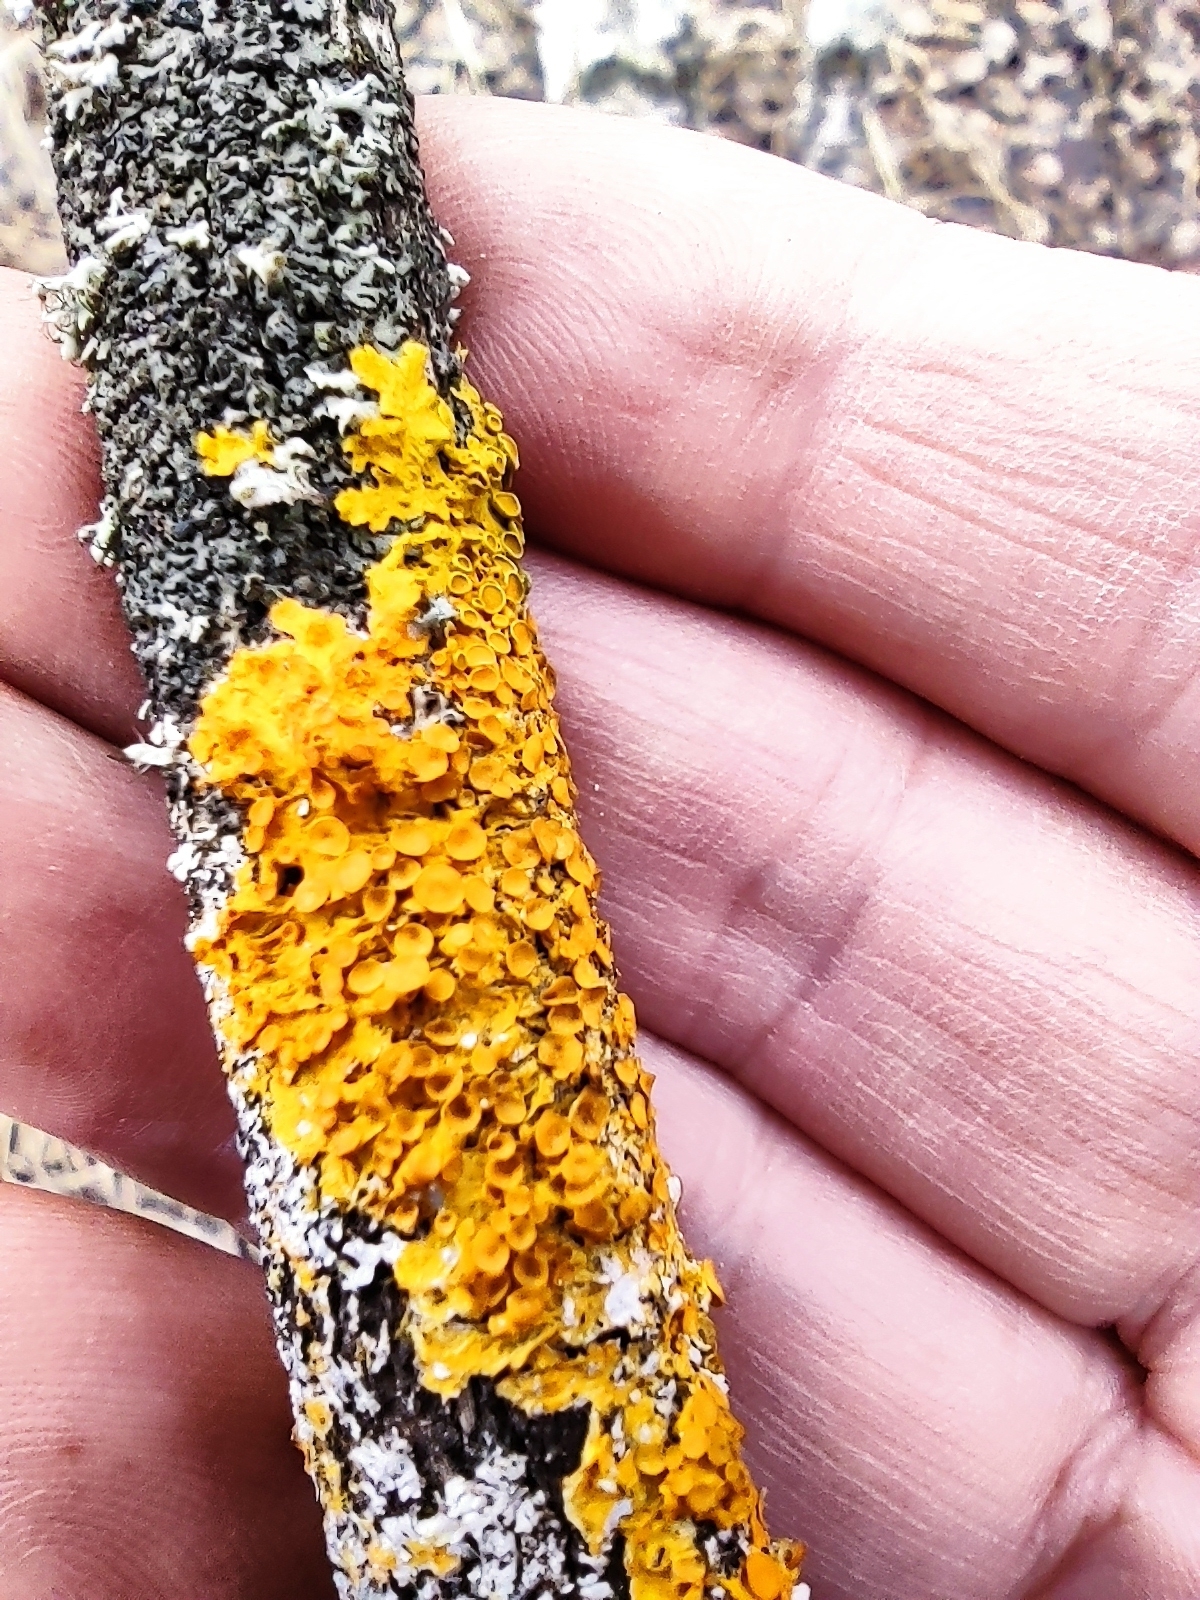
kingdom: Fungi
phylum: Ascomycota
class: Lecanoromycetes
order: Teloschistales
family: Teloschistaceae
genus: Xanthoria
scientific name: Xanthoria parietina
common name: Common orange lichen
